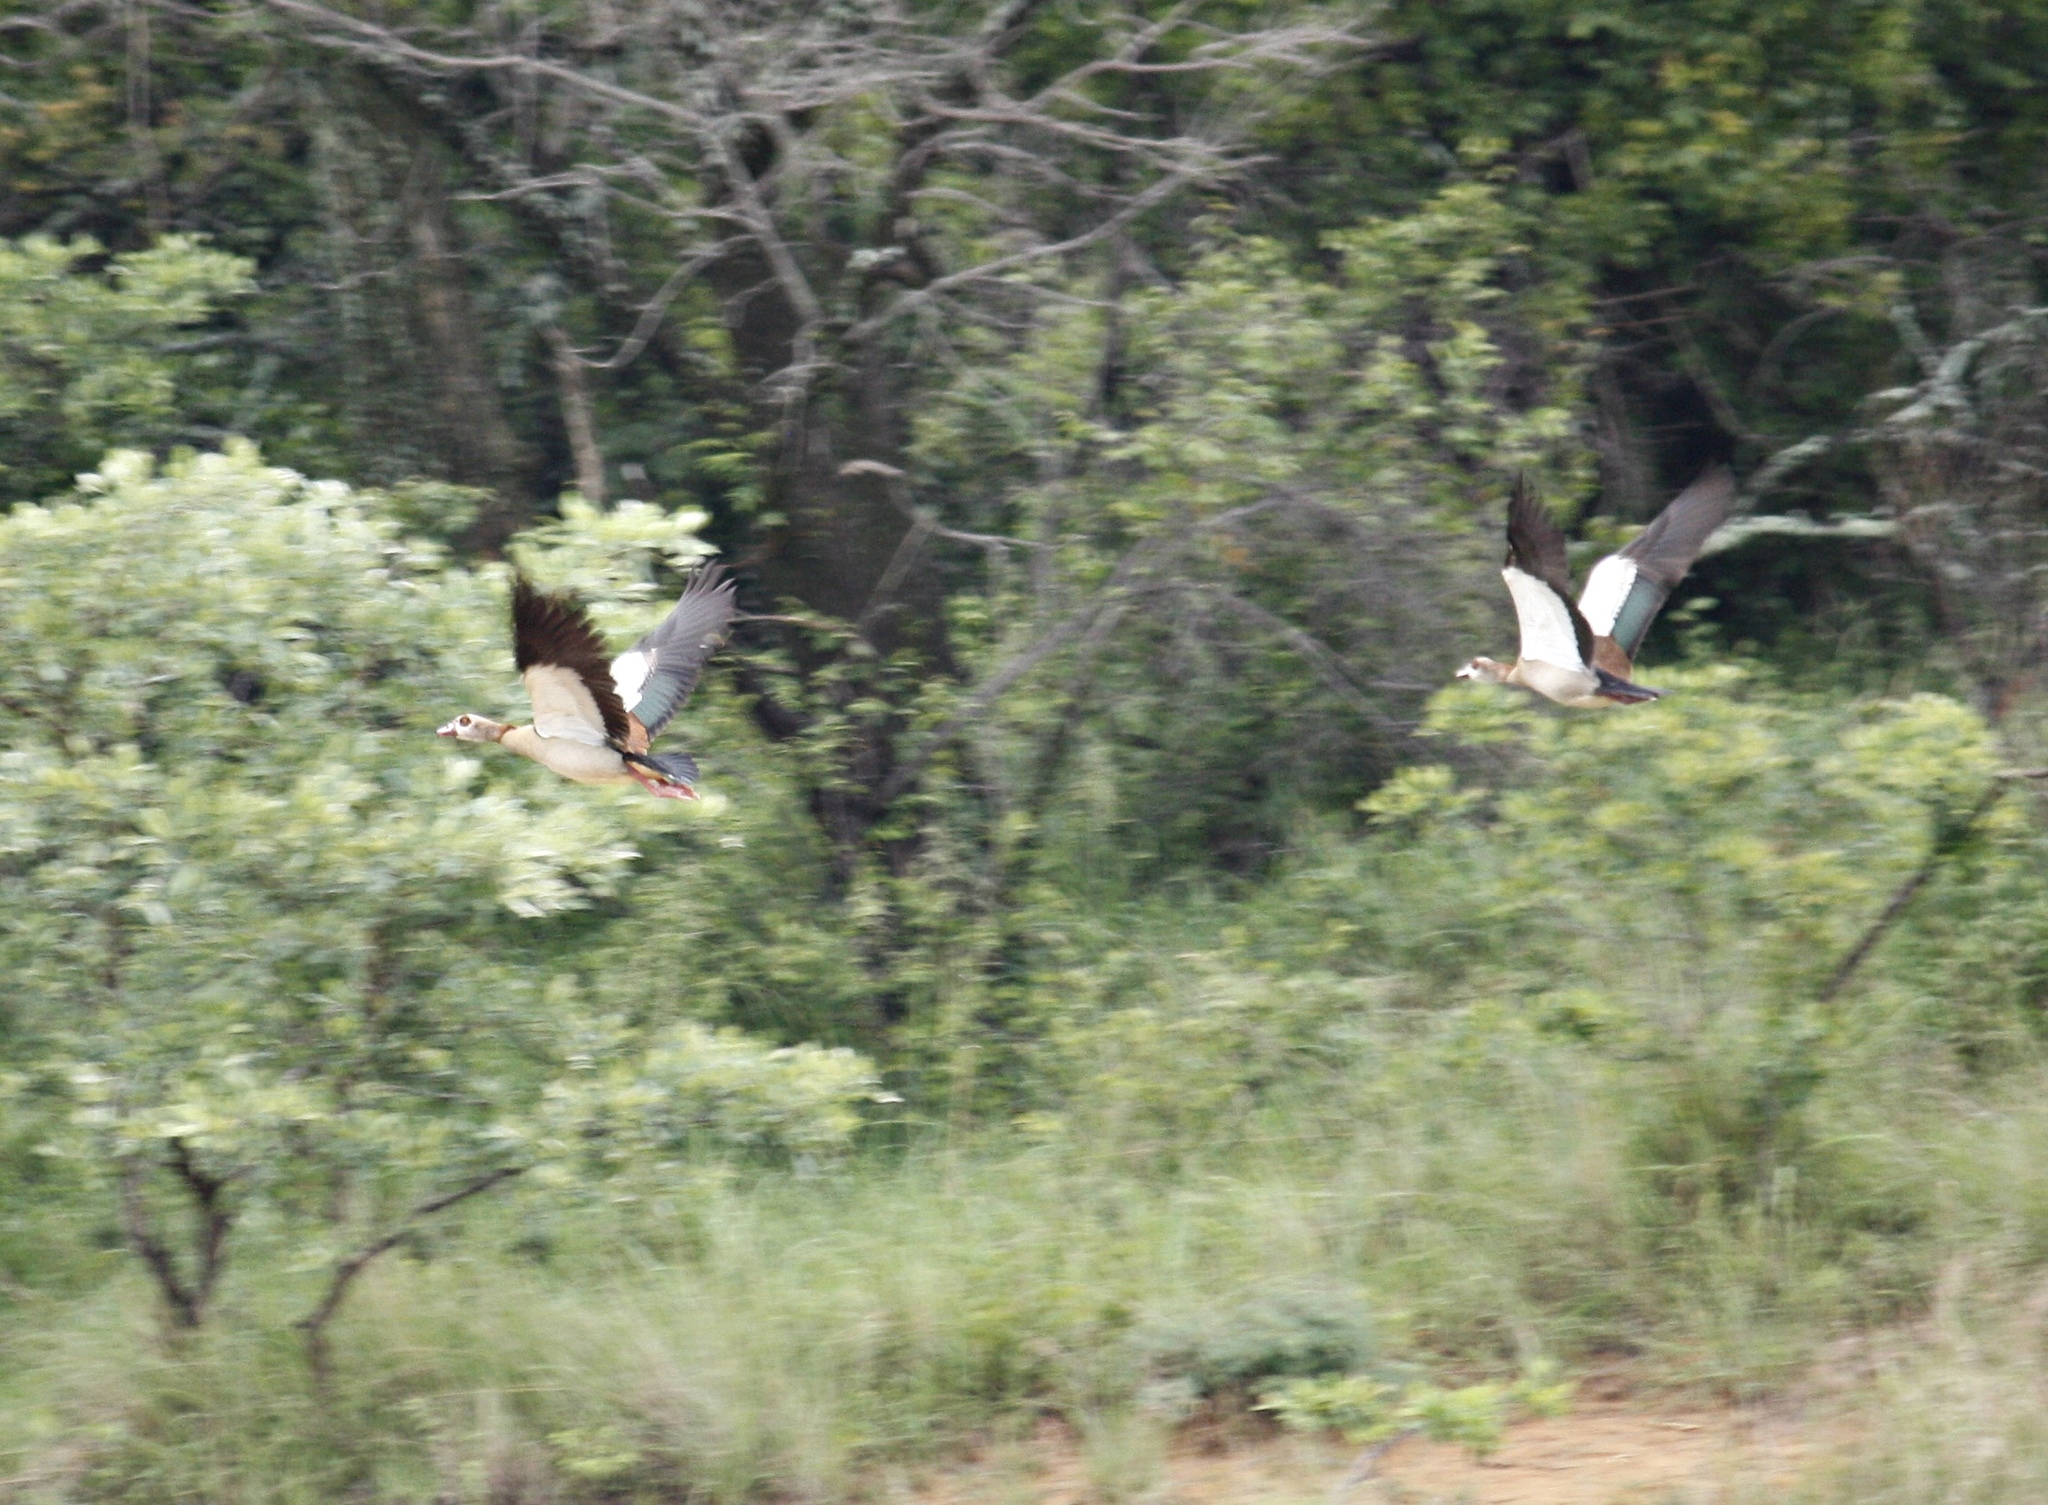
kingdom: Animalia
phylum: Chordata
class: Aves
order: Anseriformes
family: Anatidae
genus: Alopochen
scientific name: Alopochen aegyptiaca
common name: Egyptian goose
